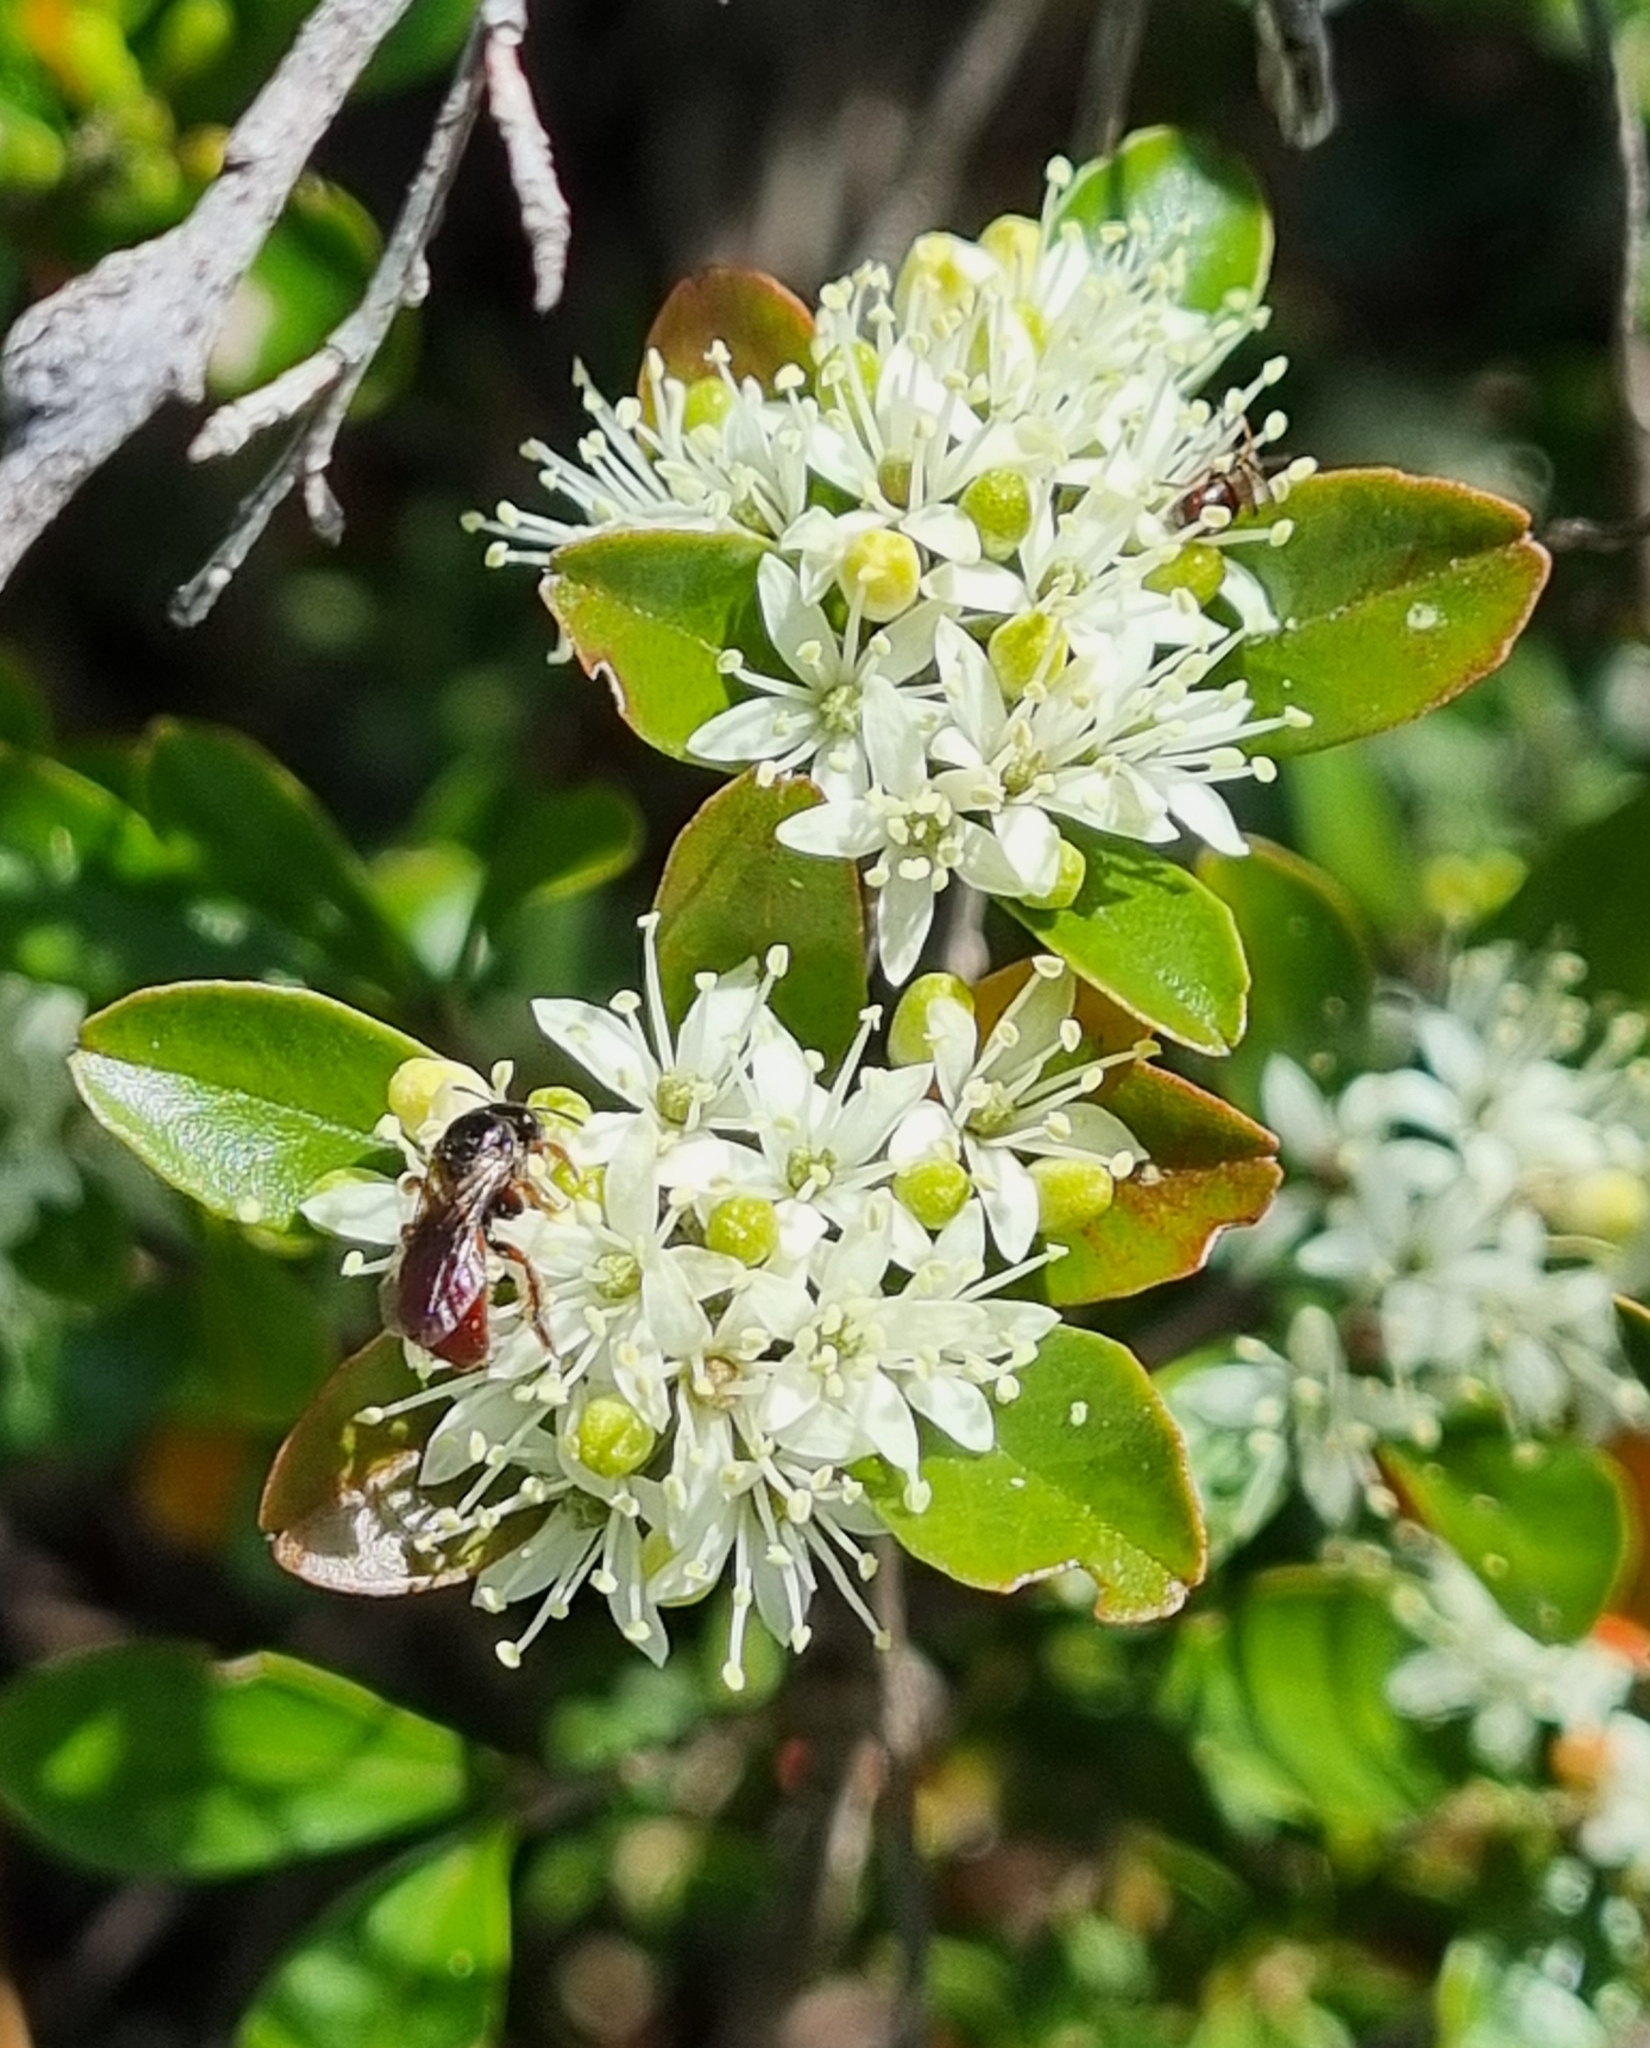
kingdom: Plantae
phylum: Tracheophyta
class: Magnoliopsida
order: Sapindales
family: Rutaceae
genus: Leionema
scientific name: Leionema beckleri
